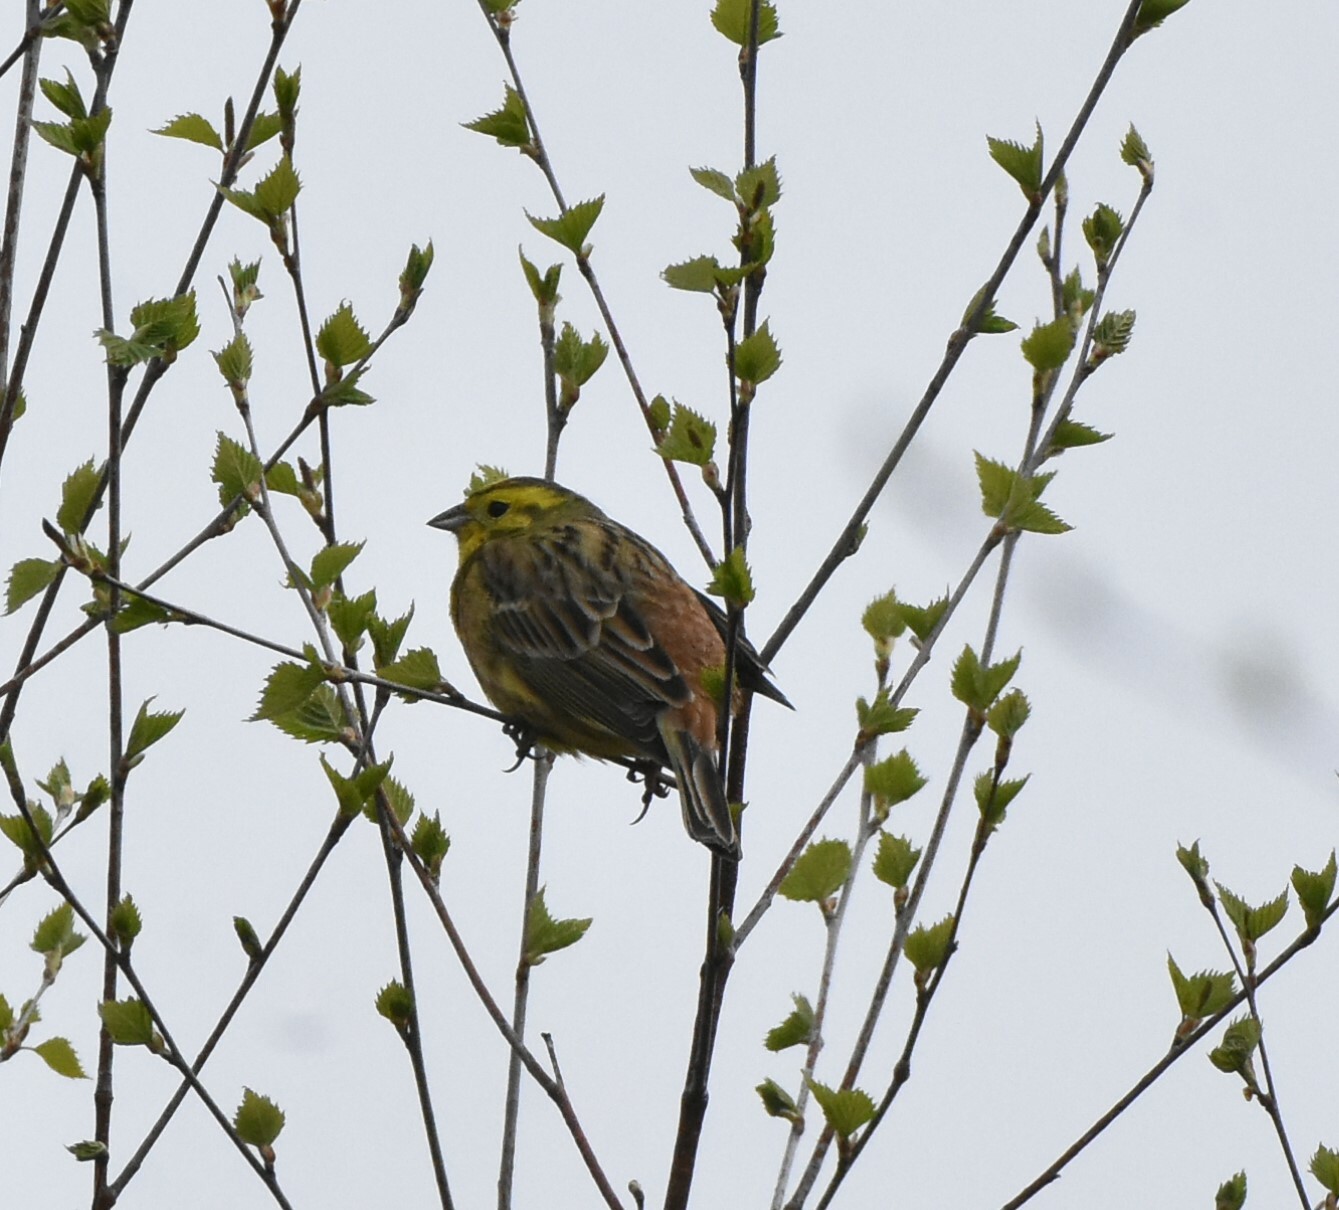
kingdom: Animalia
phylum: Chordata
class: Aves
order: Passeriformes
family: Emberizidae
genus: Emberiza
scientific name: Emberiza citrinella
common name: Yellowhammer
